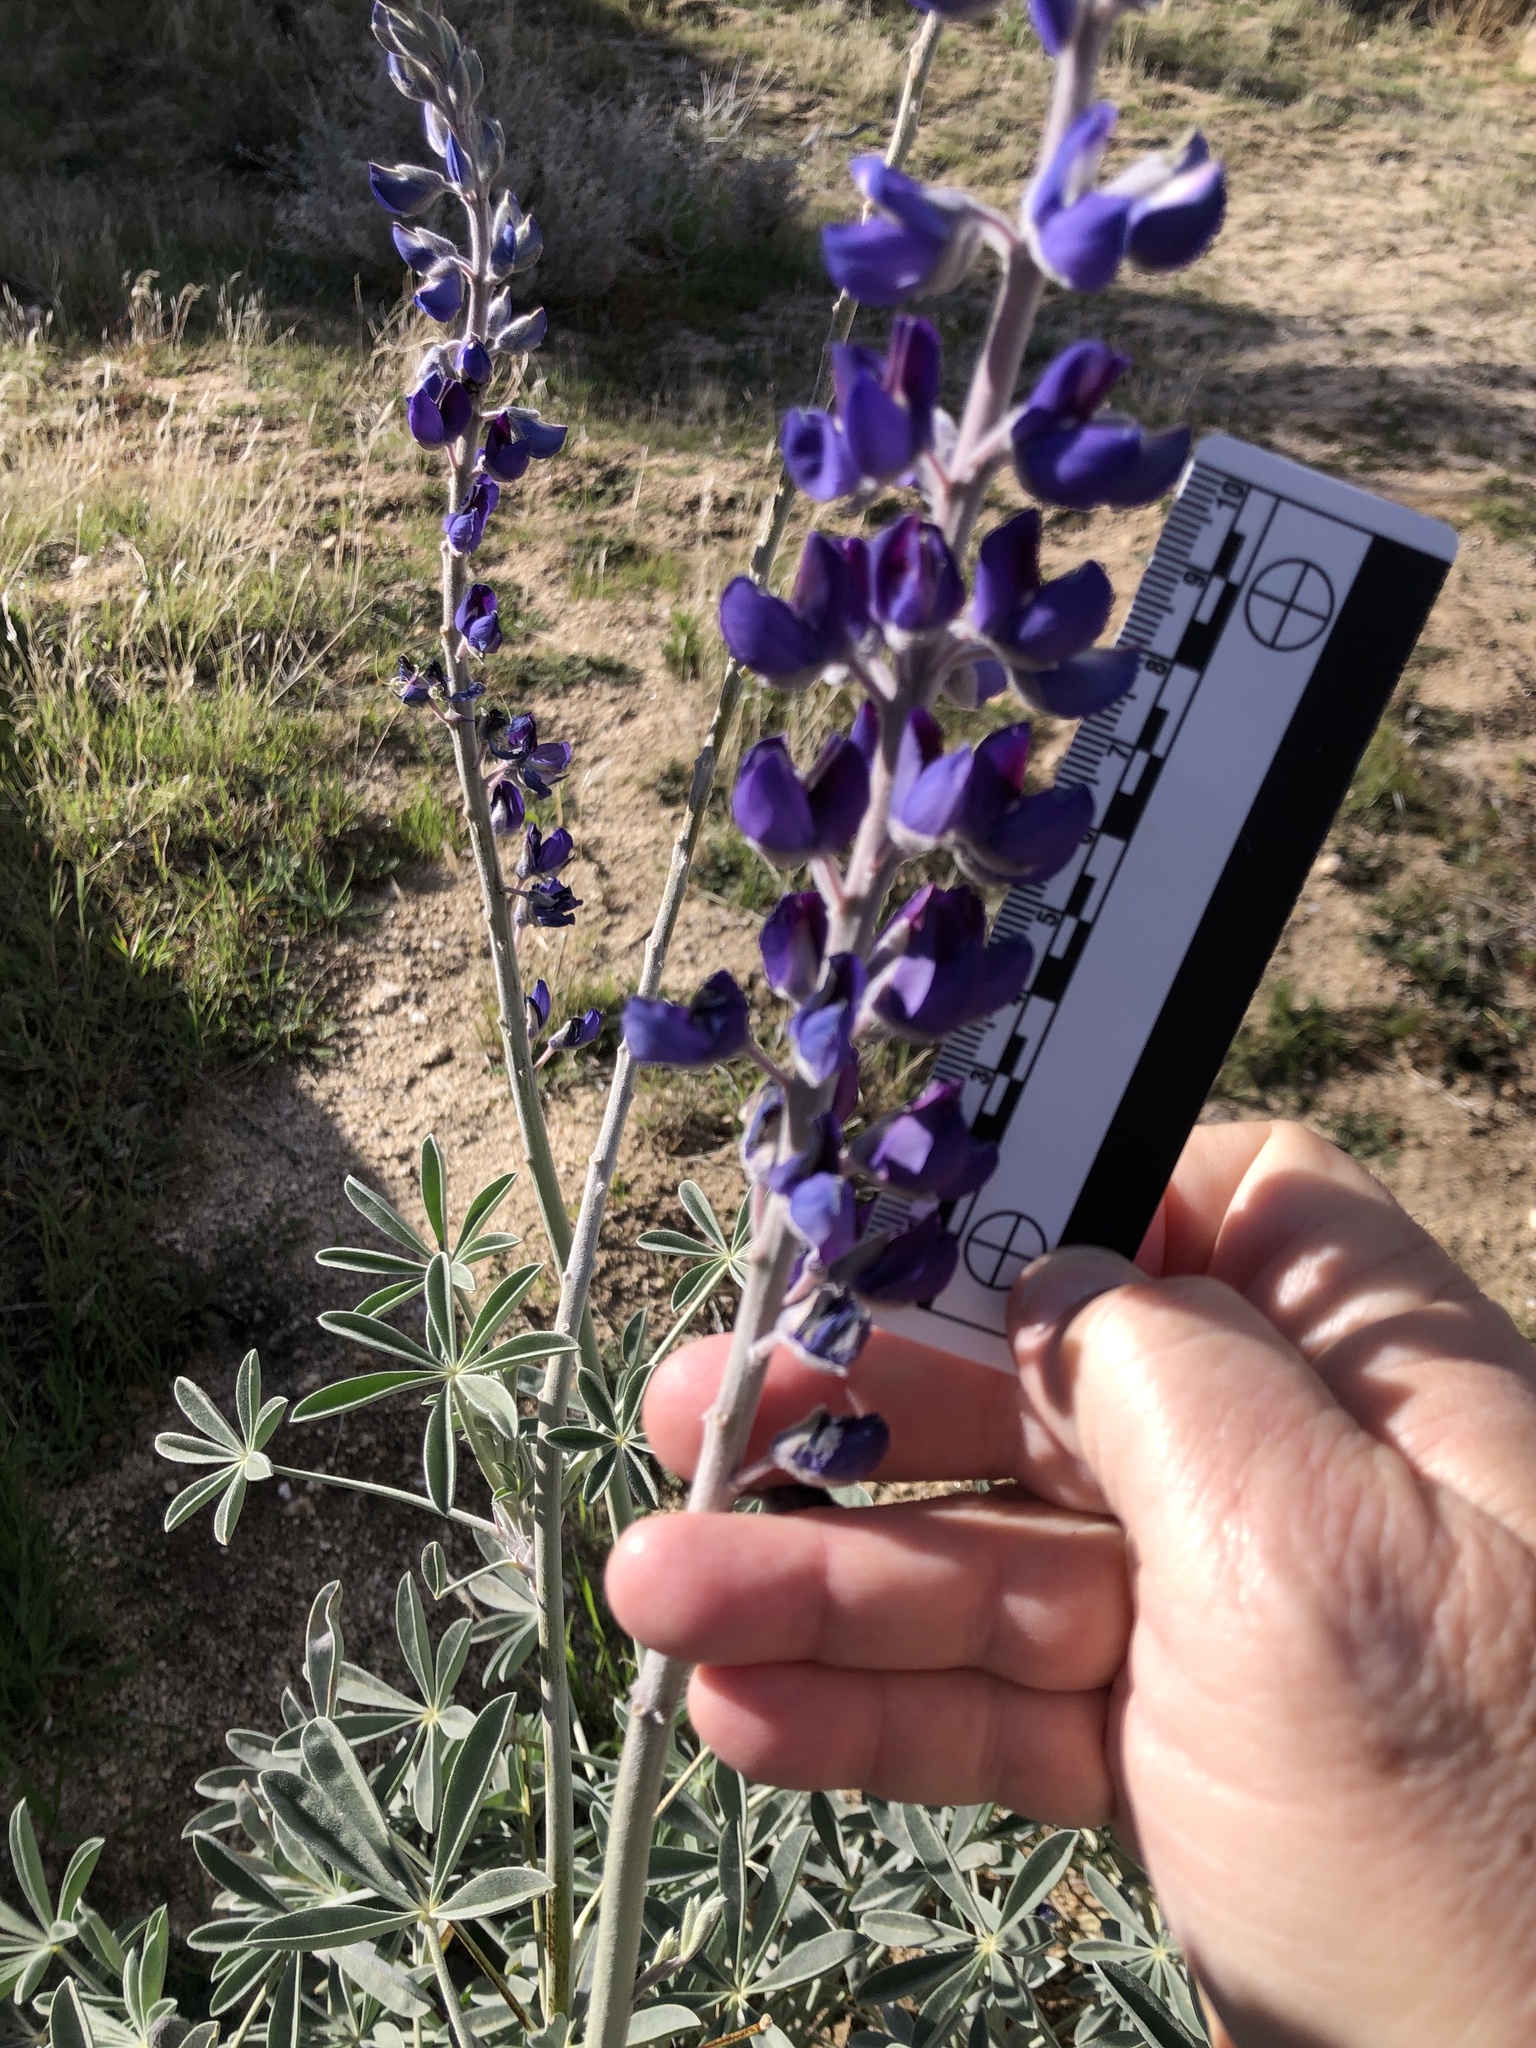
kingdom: Plantae
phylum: Tracheophyta
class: Magnoliopsida
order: Fabales
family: Fabaceae
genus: Lupinus
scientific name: Lupinus excubitus
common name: Grape soda lupine
